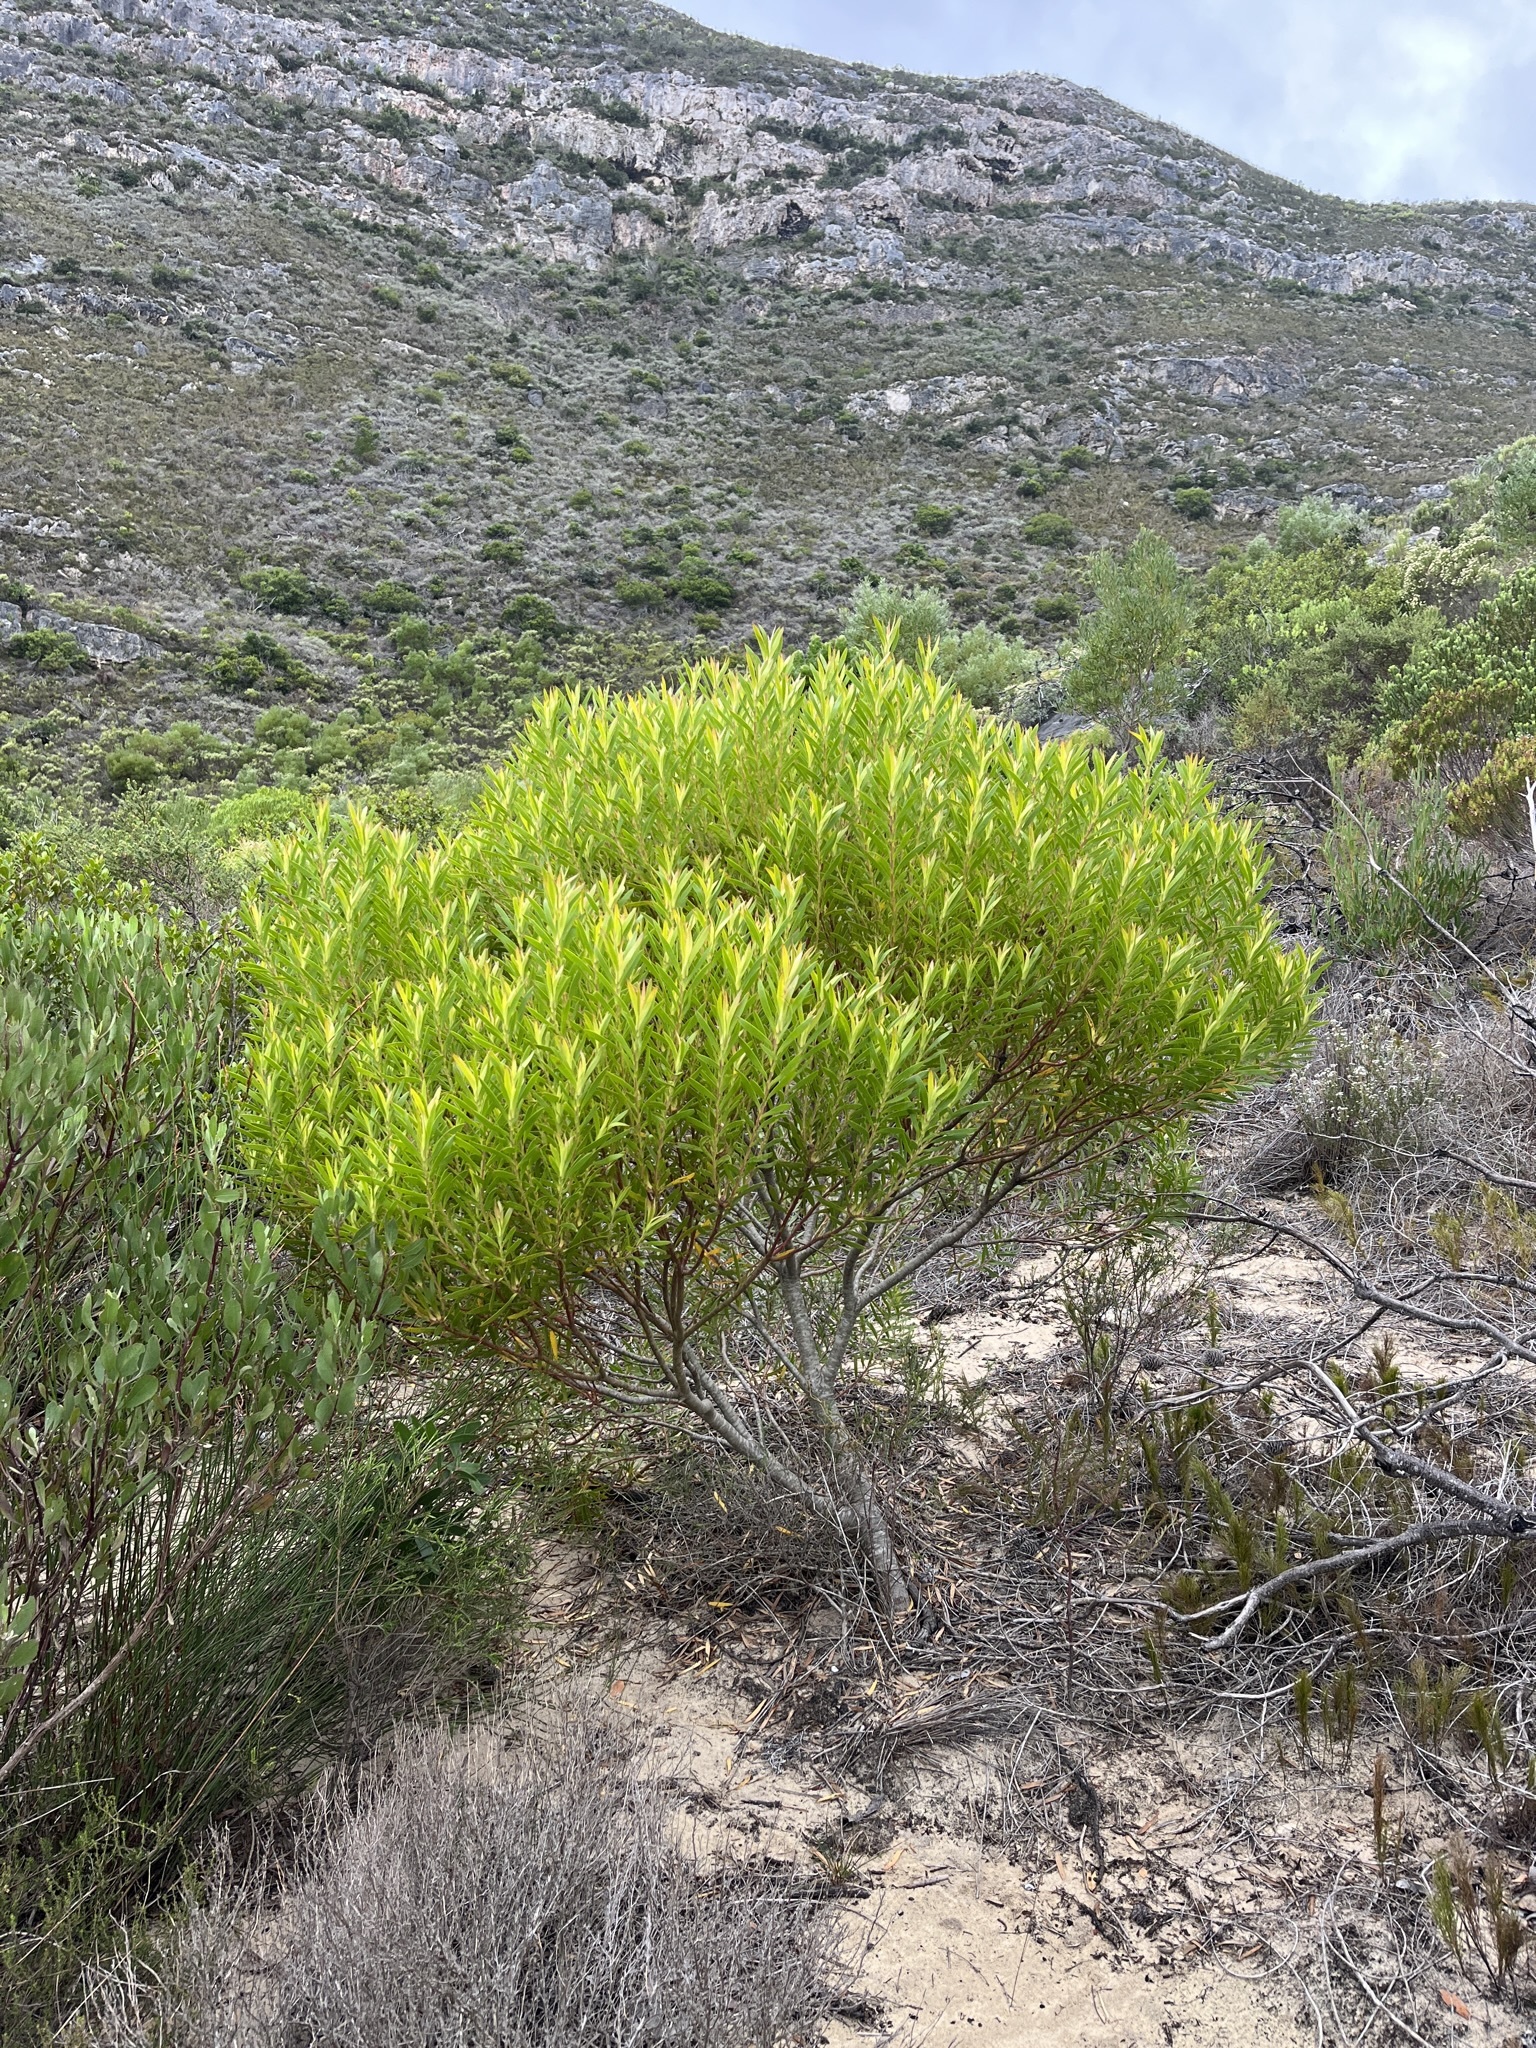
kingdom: Plantae
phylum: Tracheophyta
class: Magnoliopsida
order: Proteales
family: Proteaceae
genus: Leucadendron
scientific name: Leucadendron coniferum
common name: Dune conebush
